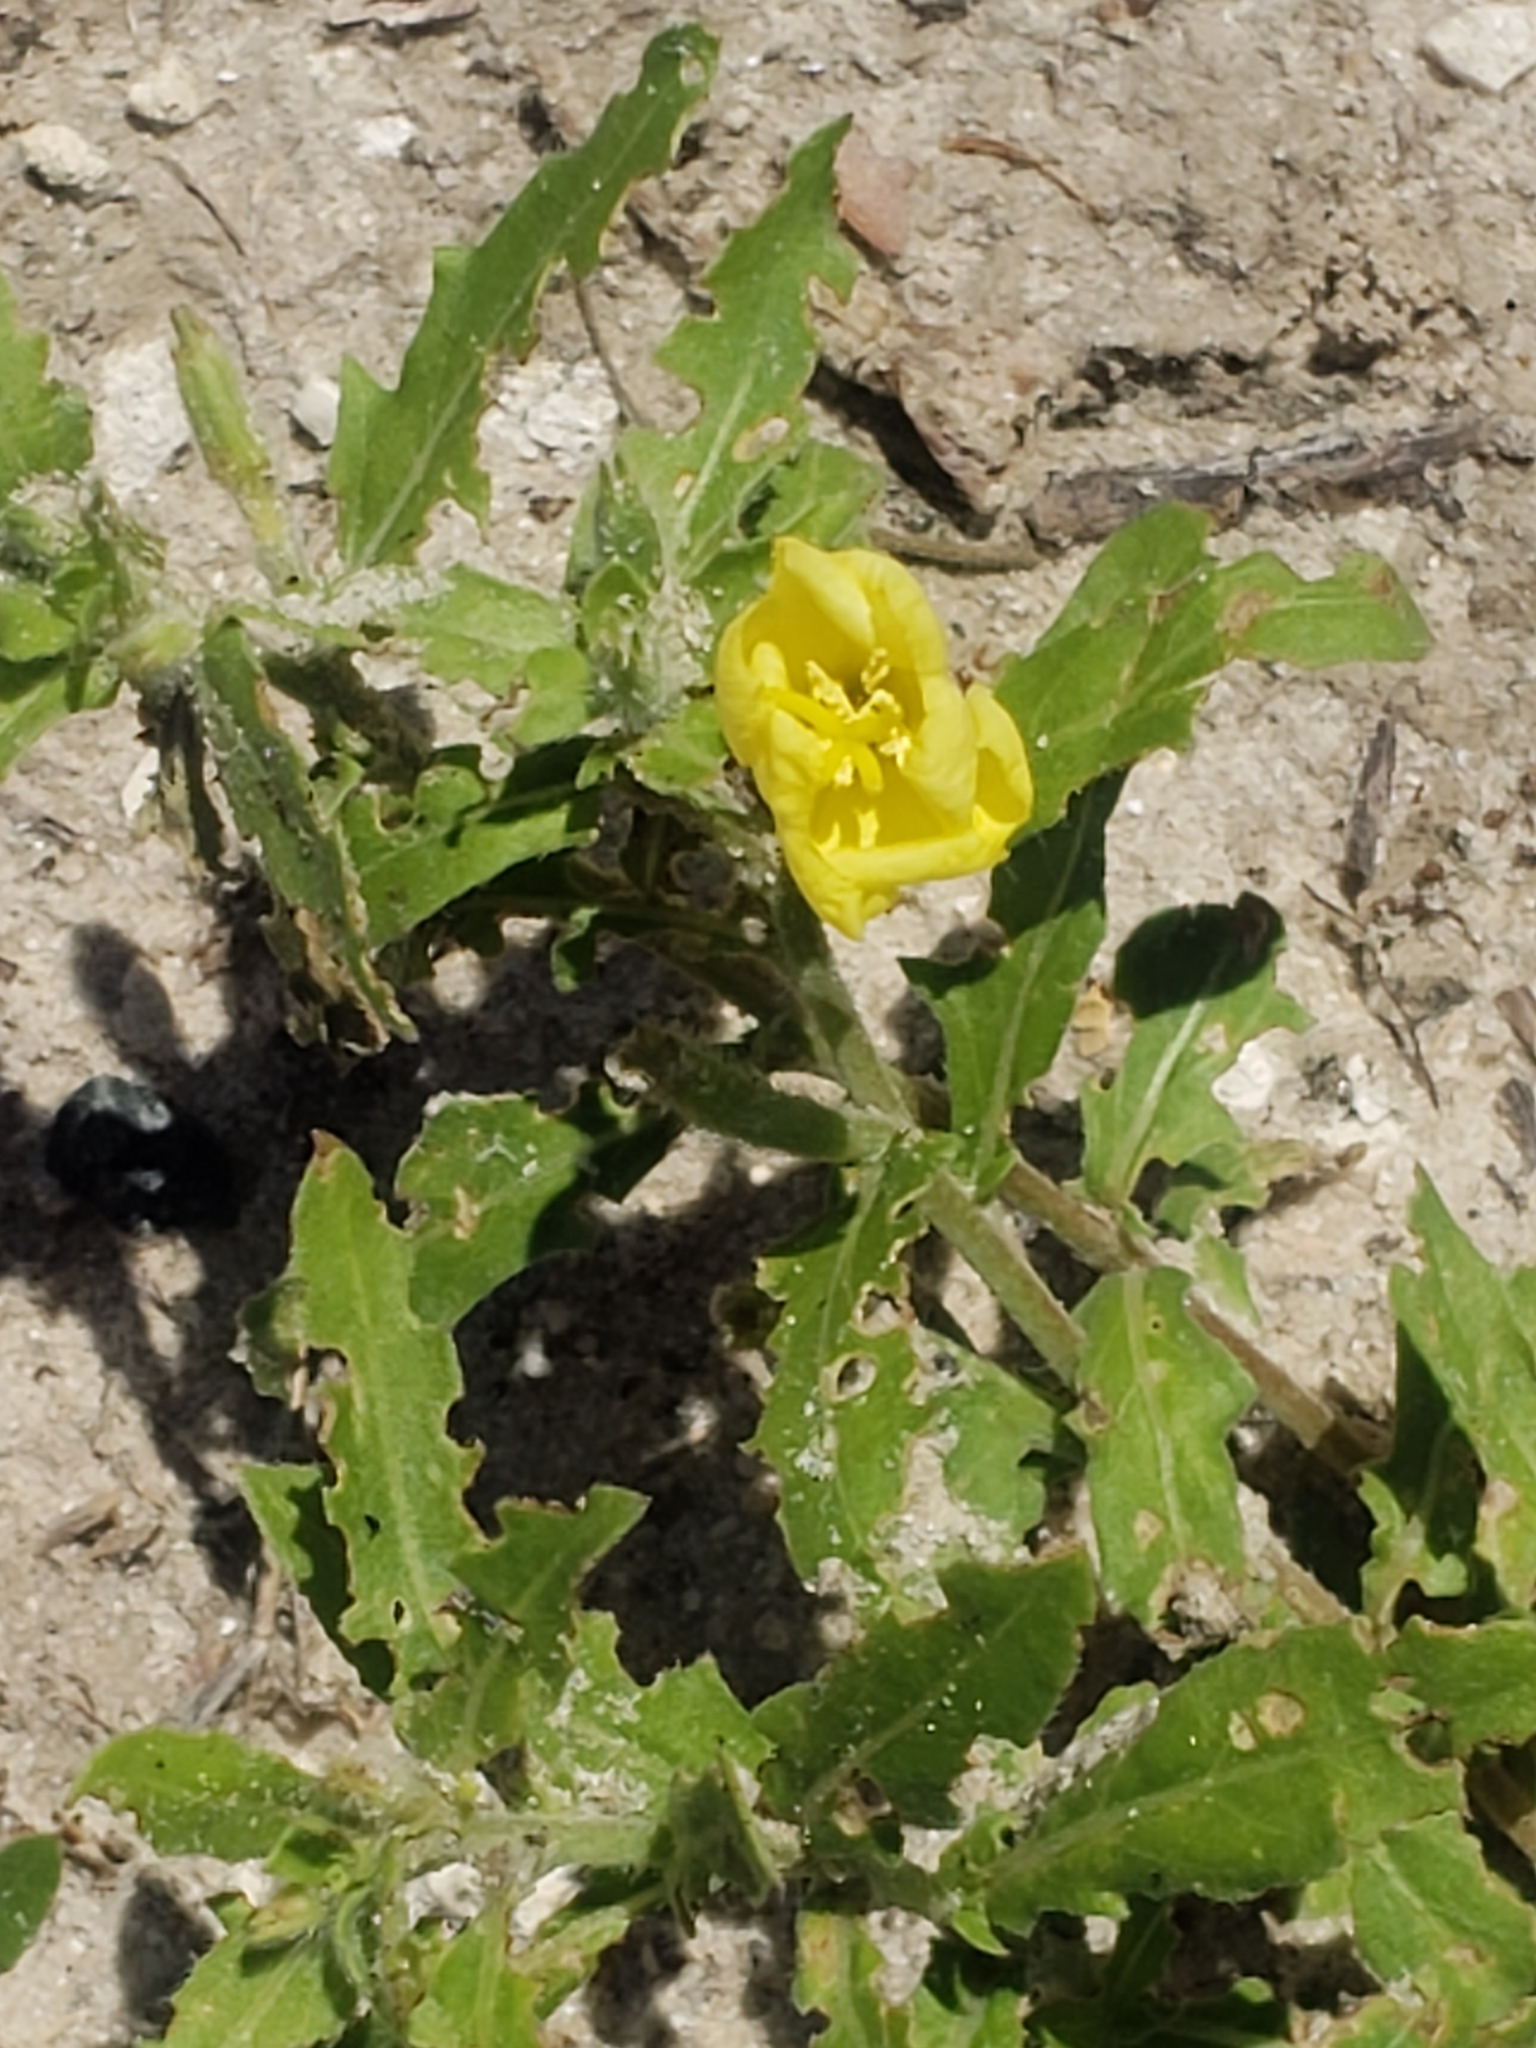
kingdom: Plantae
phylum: Tracheophyta
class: Magnoliopsida
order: Myrtales
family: Onagraceae
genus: Oenothera
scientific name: Oenothera laciniata
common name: Cut-leaved evening-primrose
